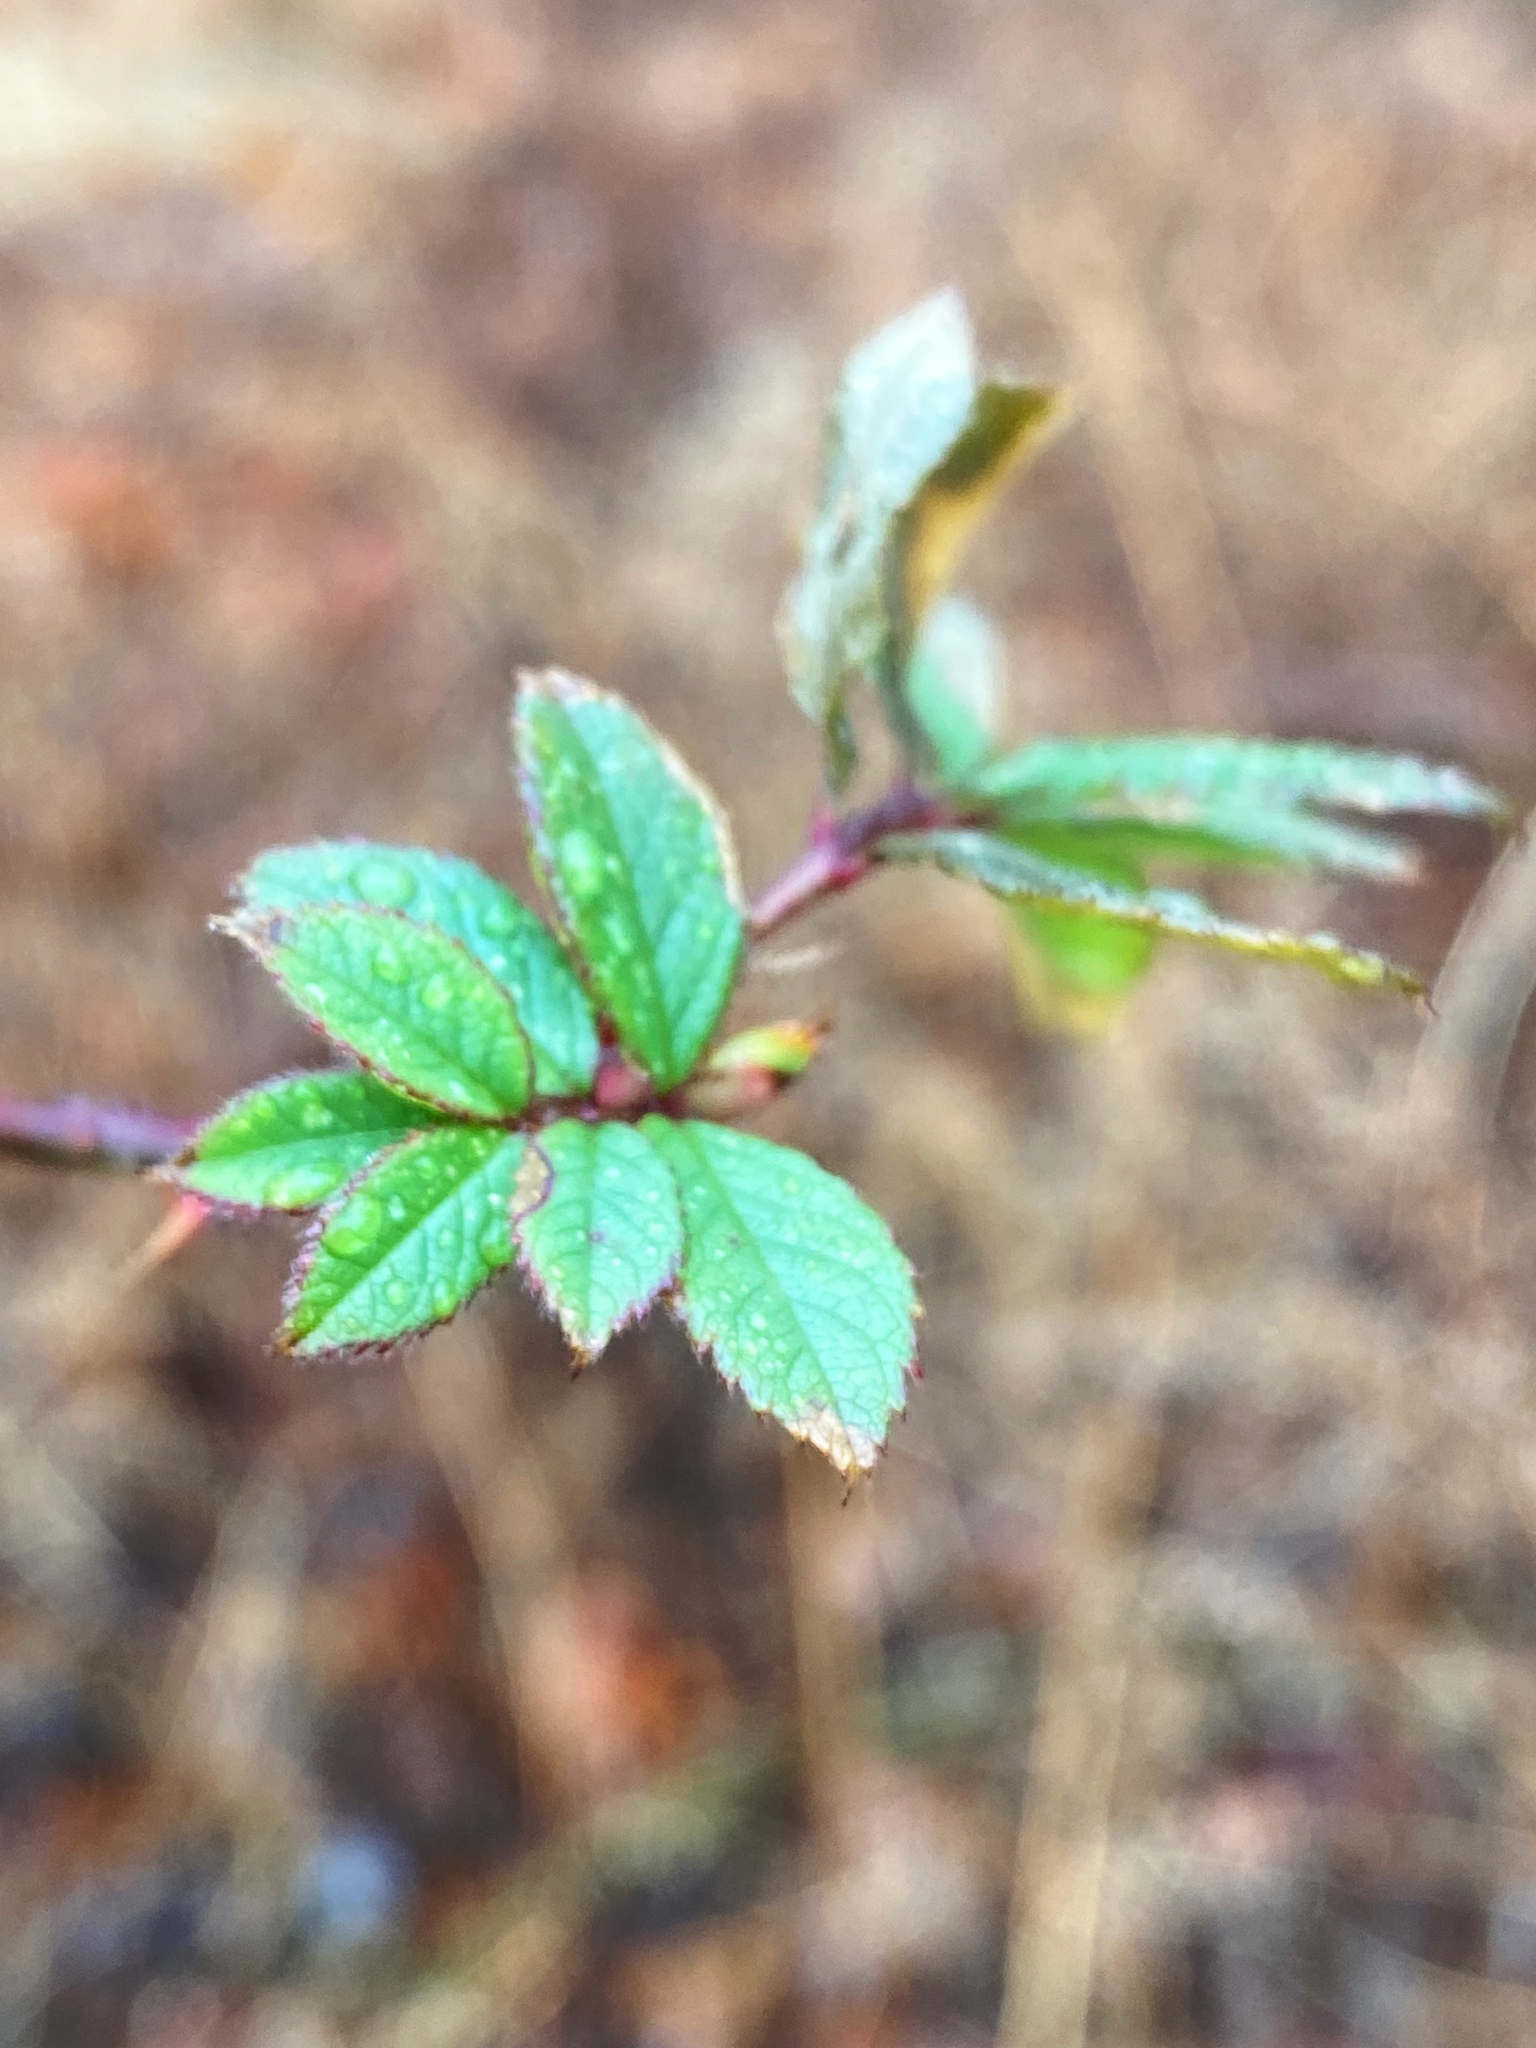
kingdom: Plantae
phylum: Tracheophyta
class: Magnoliopsida
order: Rosales
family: Rosaceae
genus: Rosa
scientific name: Rosa multiflora
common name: Multiflora rose
